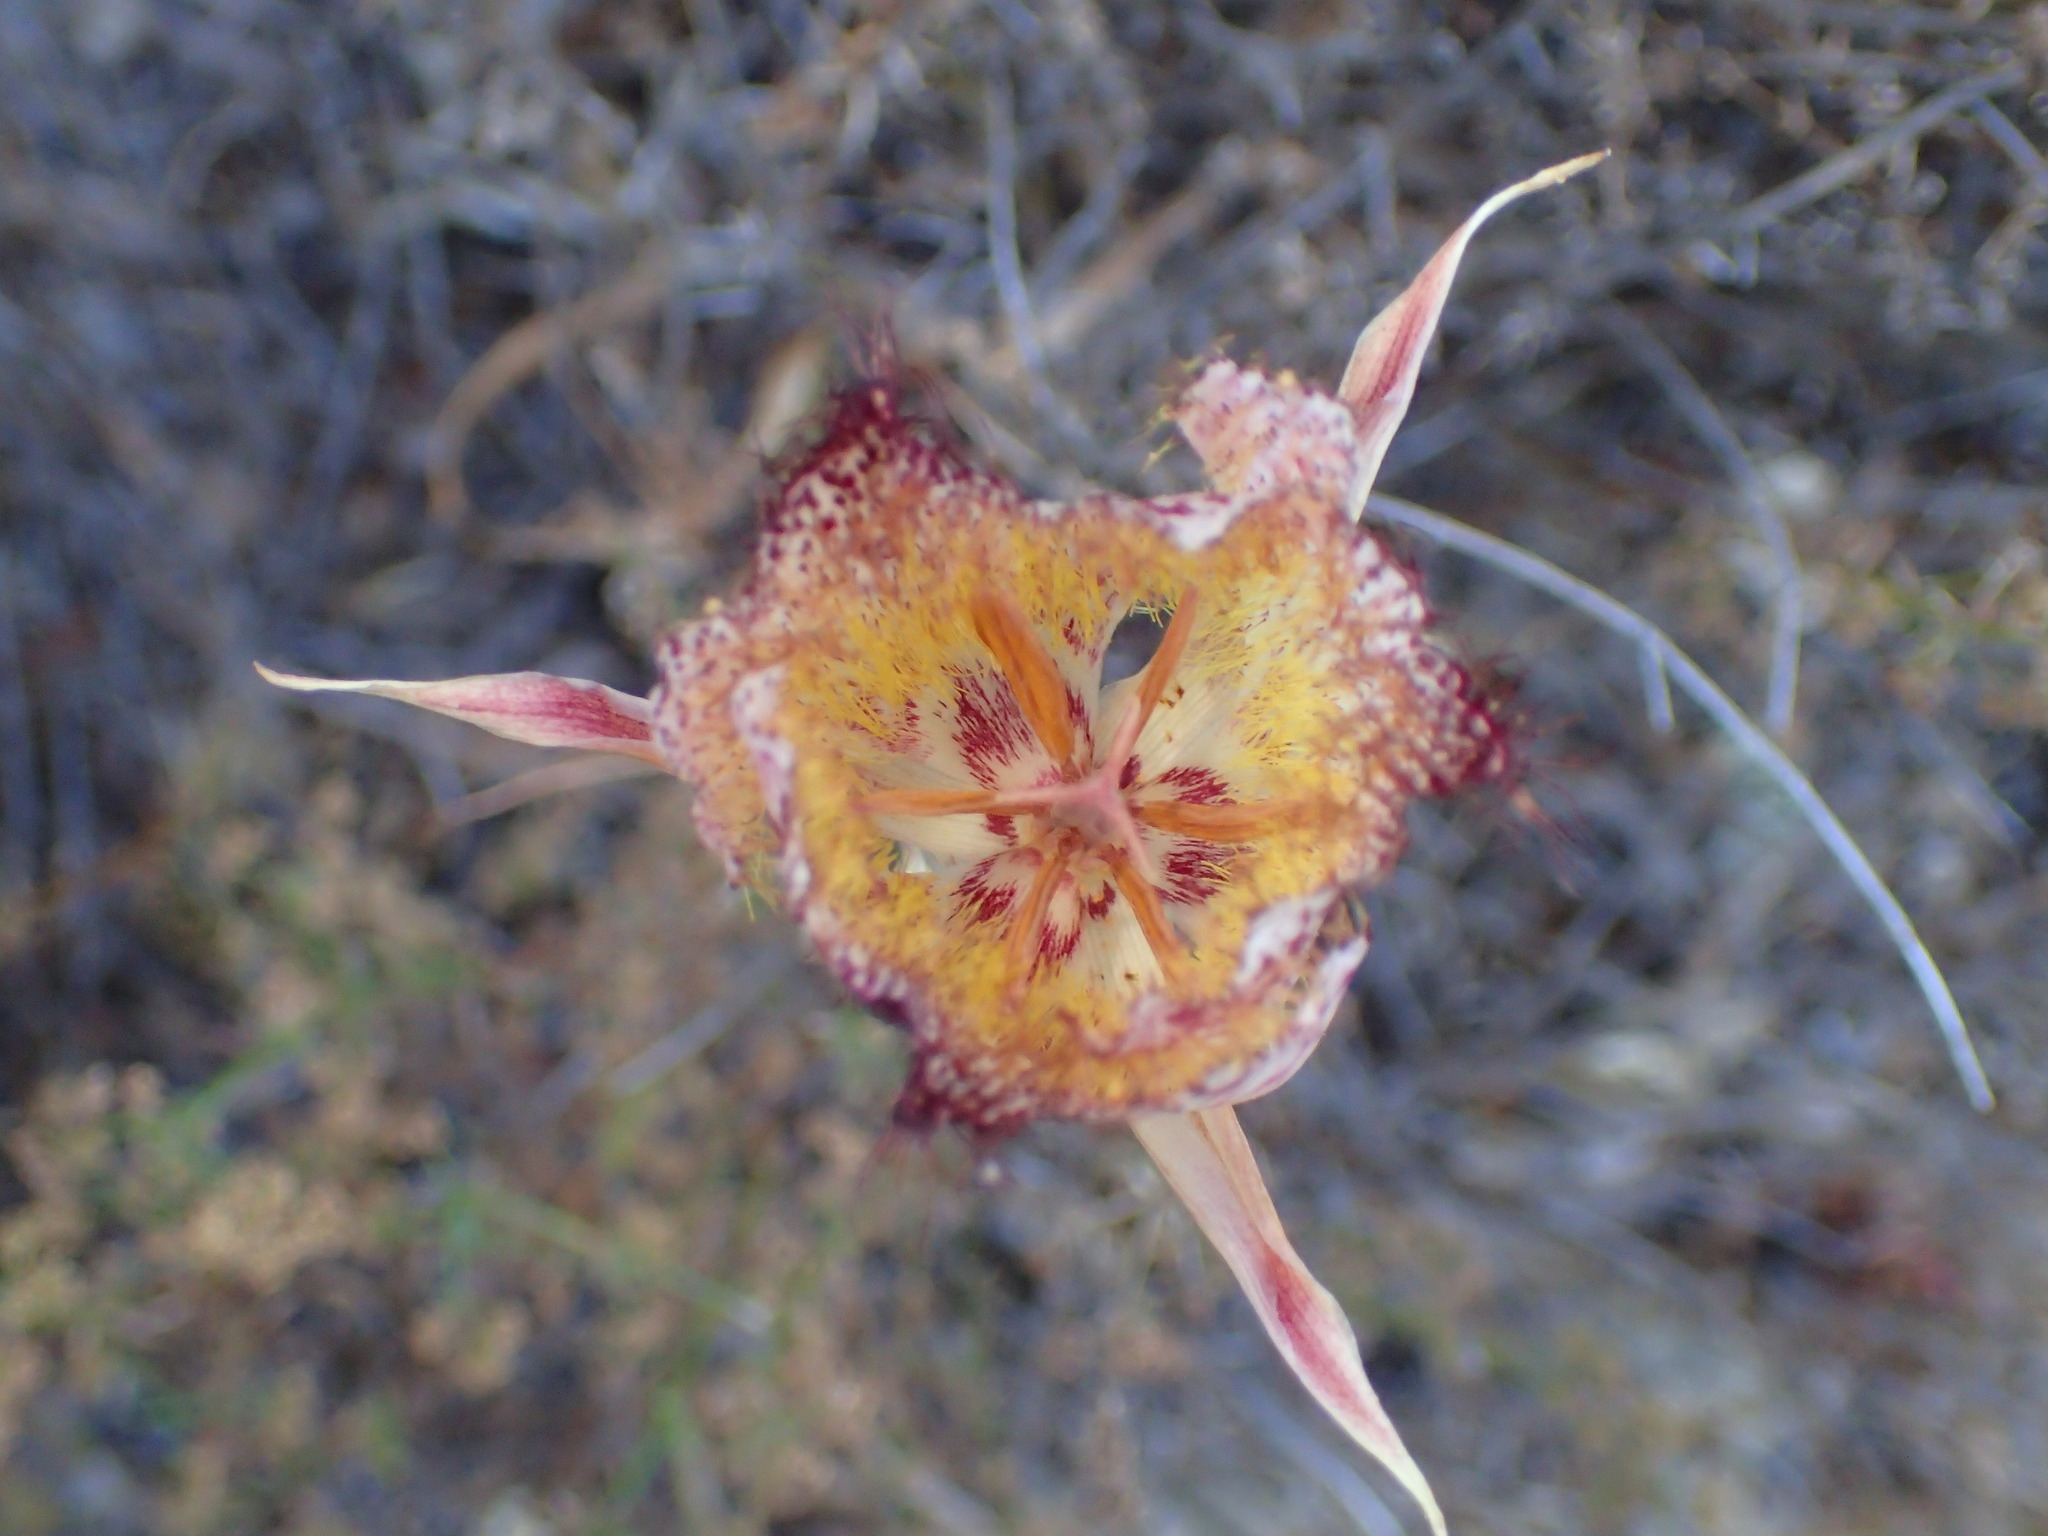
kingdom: Plantae
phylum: Tracheophyta
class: Liliopsida
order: Liliales
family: Liliaceae
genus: Calochortus
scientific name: Calochortus fimbriatus
